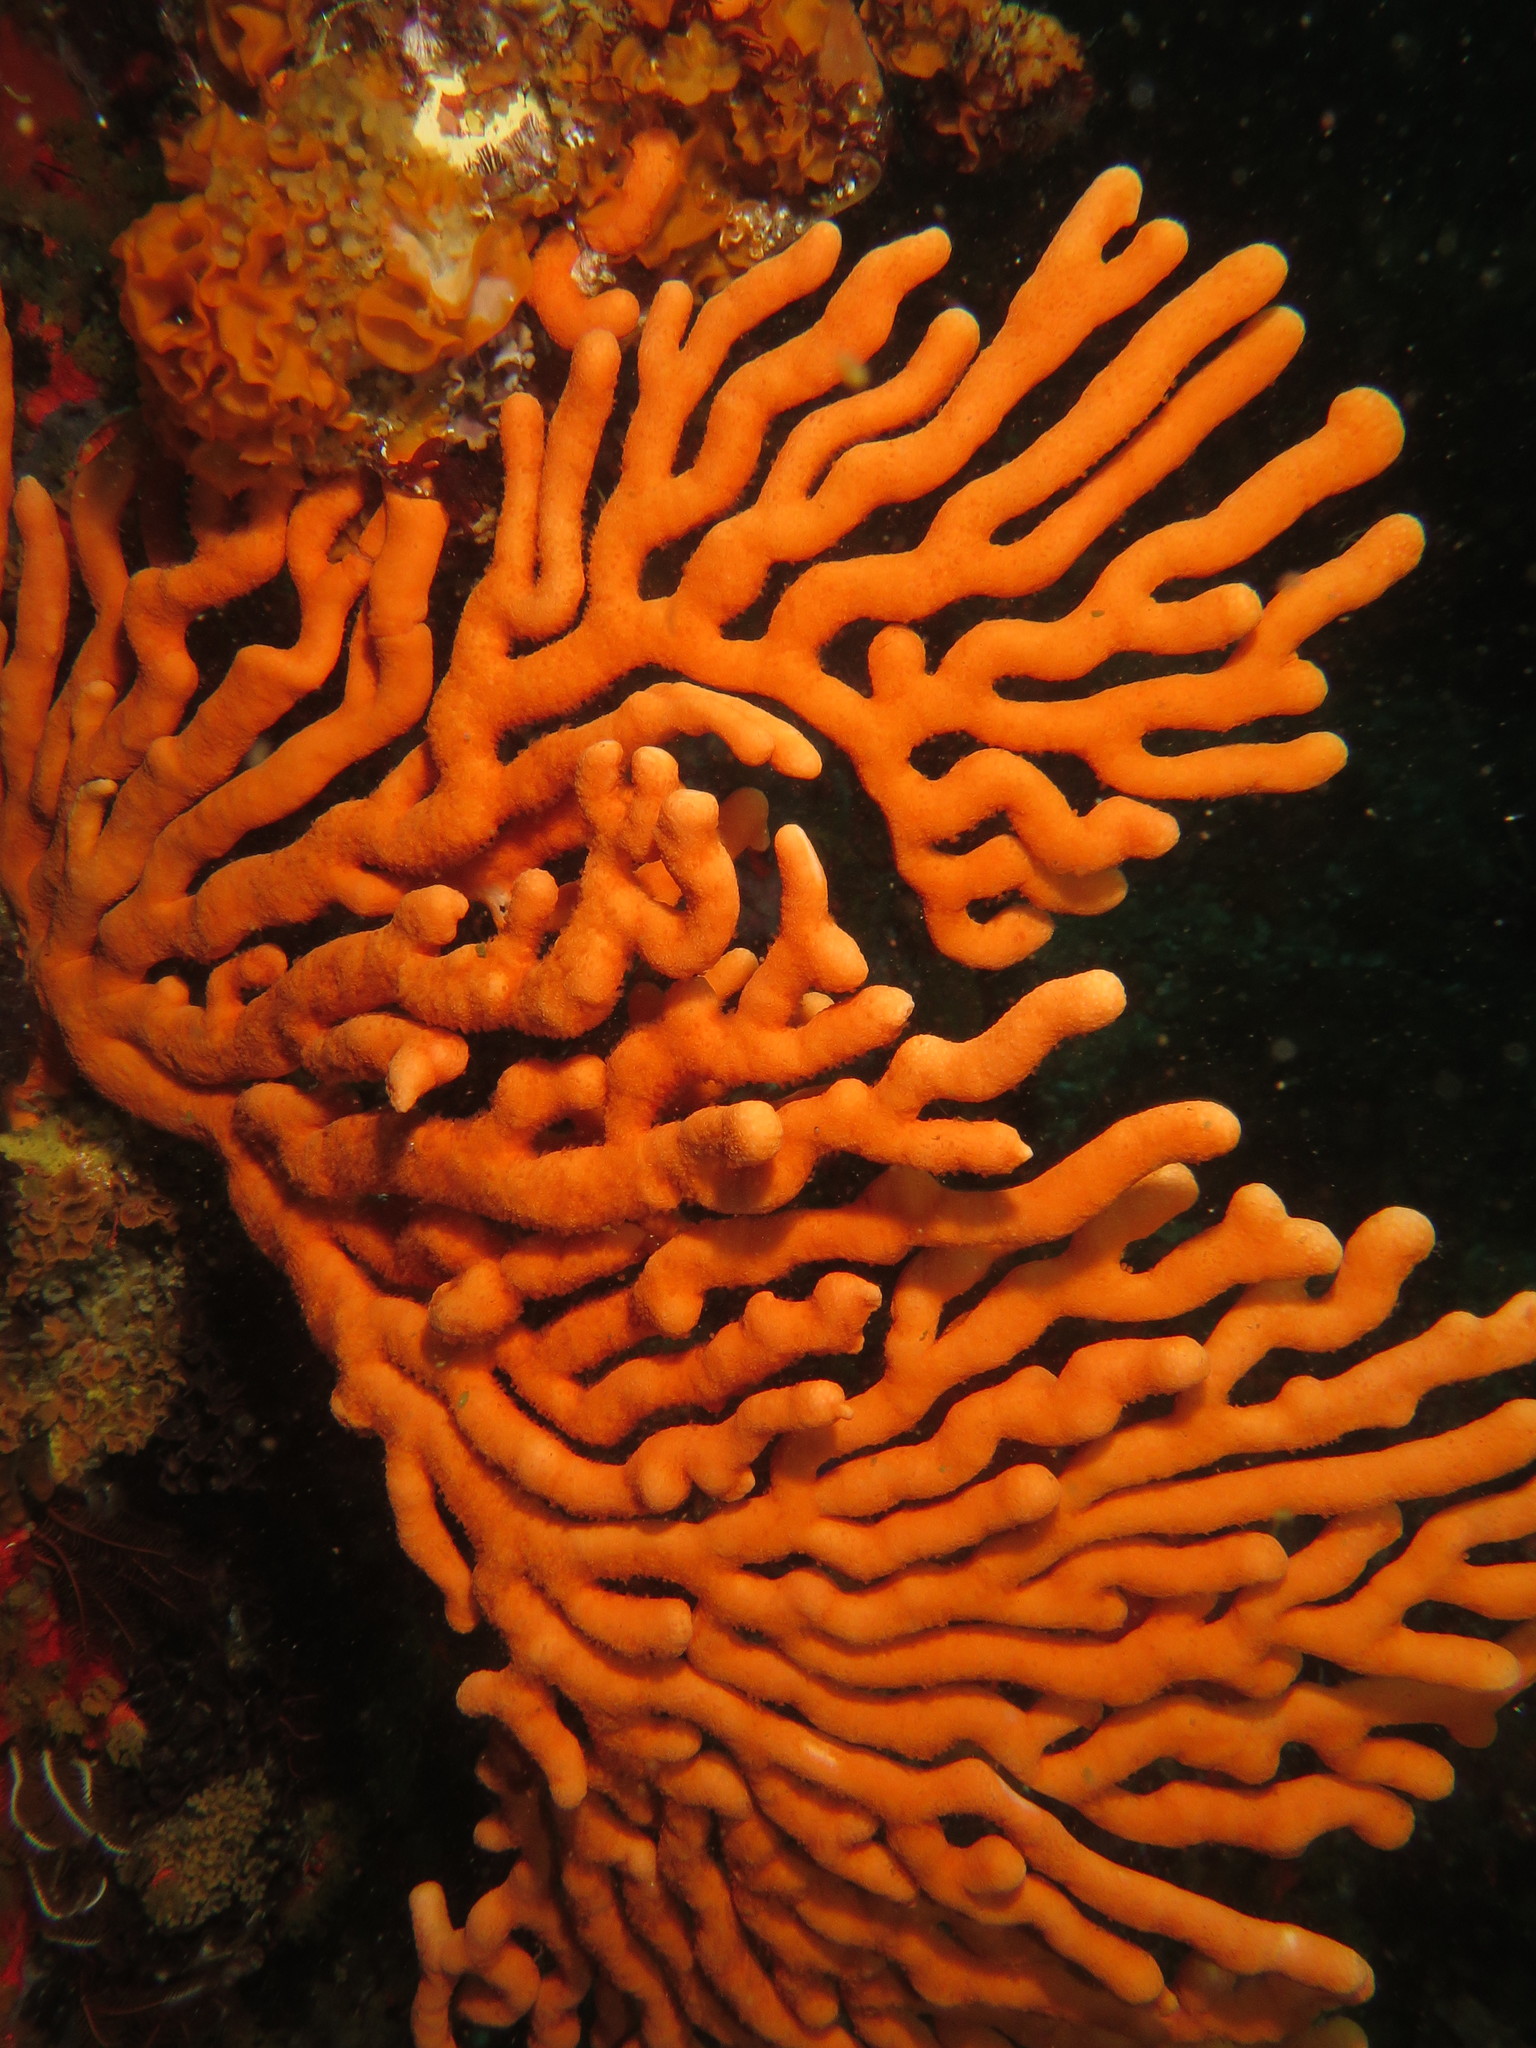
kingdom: Animalia
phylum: Cnidaria
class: Anthozoa
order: Malacalcyonacea
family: Eunicellidae
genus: Eunicella
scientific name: Eunicella tricoronata
